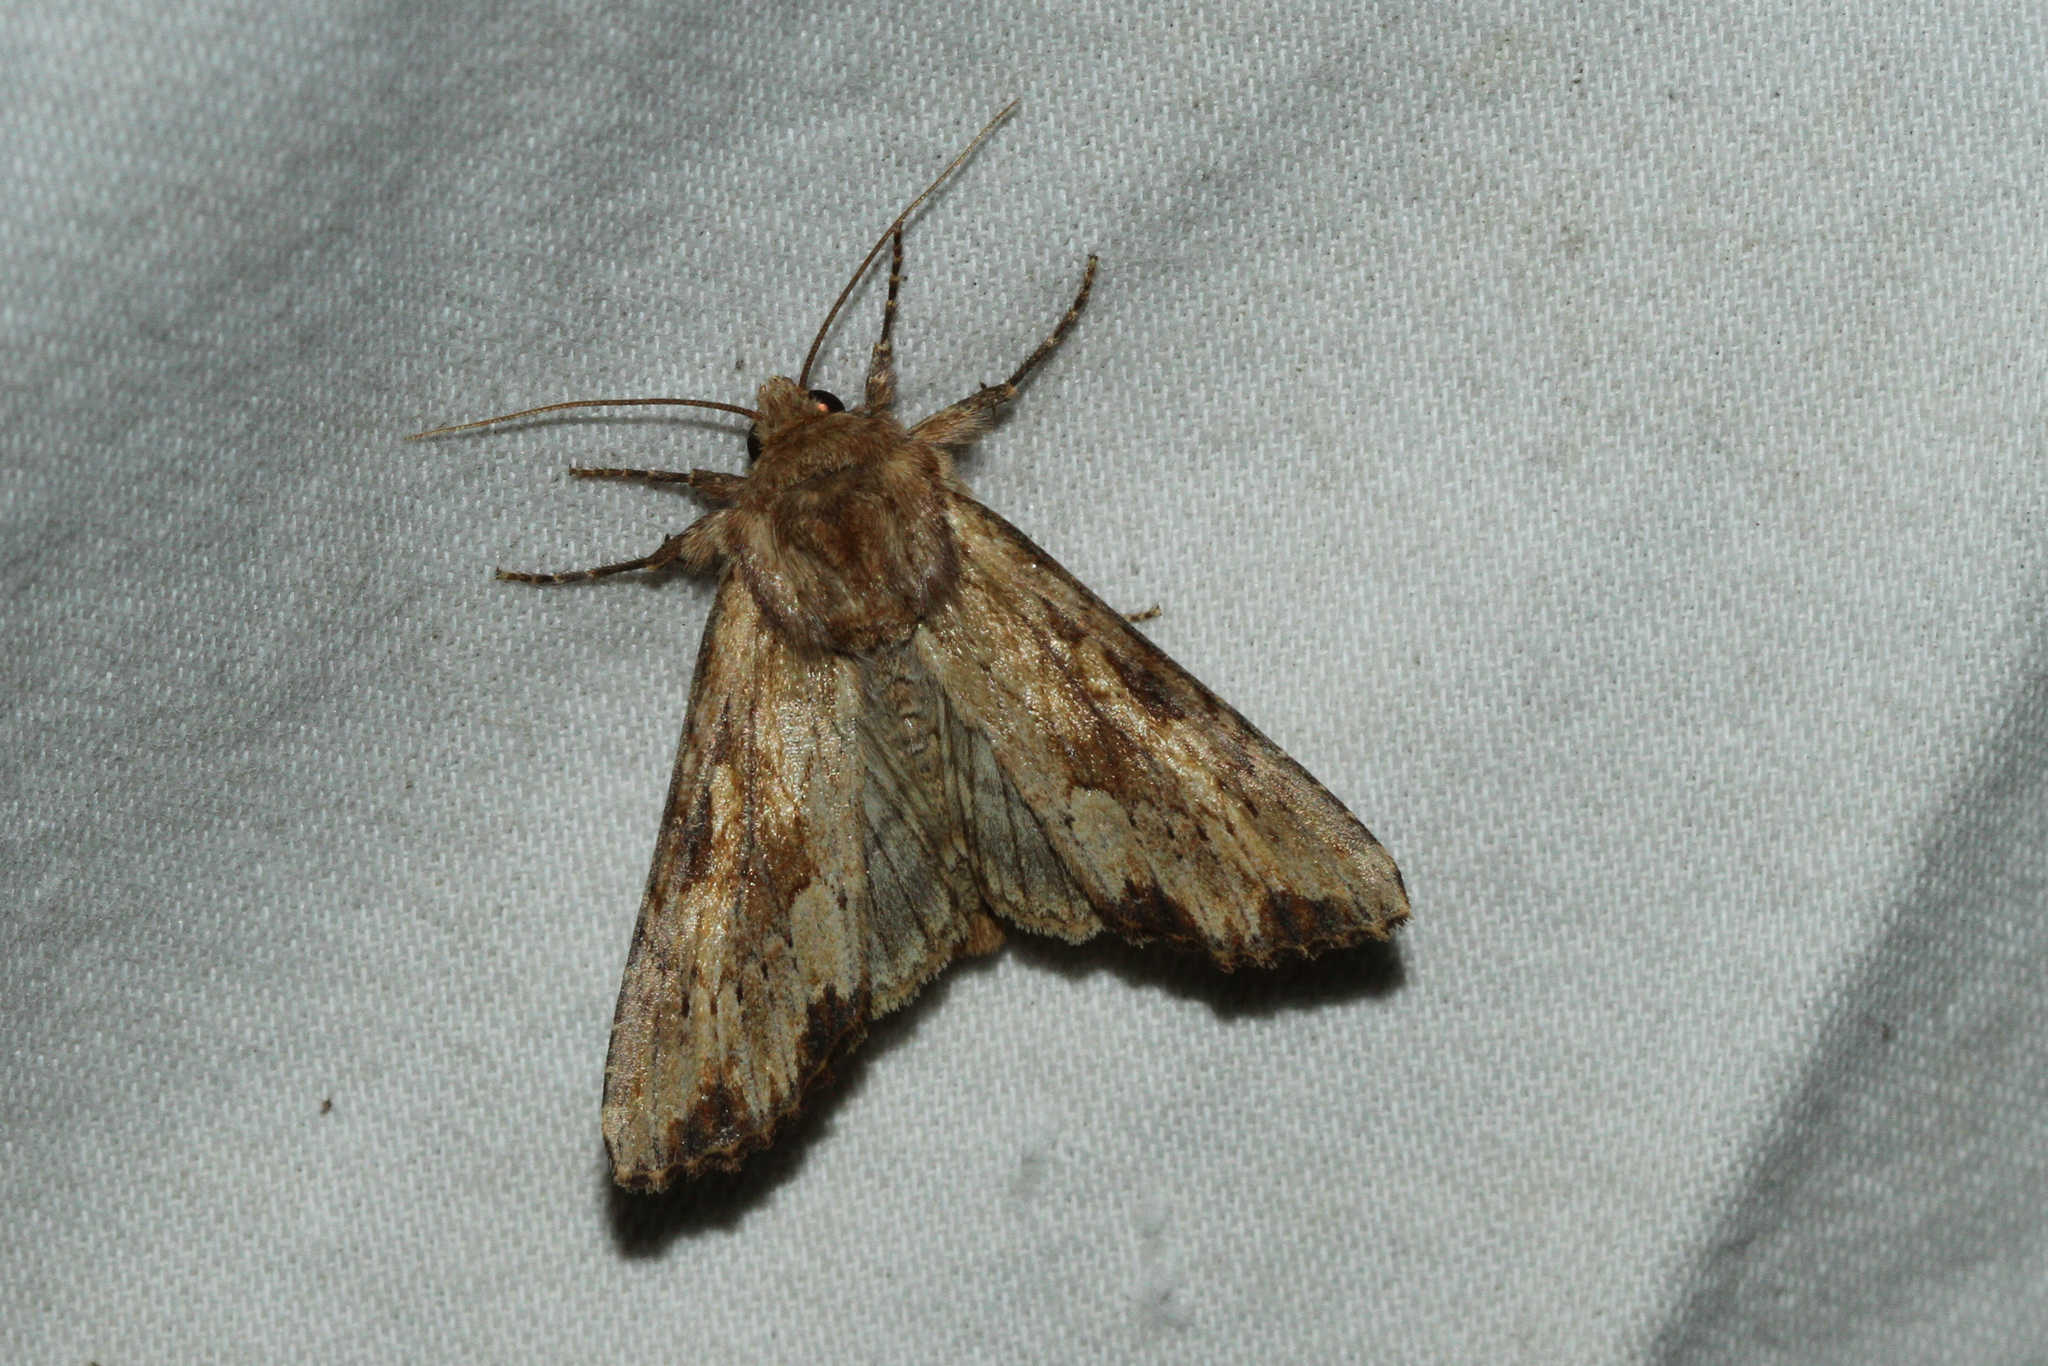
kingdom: Animalia
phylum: Arthropoda
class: Insecta
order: Lepidoptera
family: Noctuidae
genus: Apamea
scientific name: Apamea sublustris
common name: Reddish light arches
